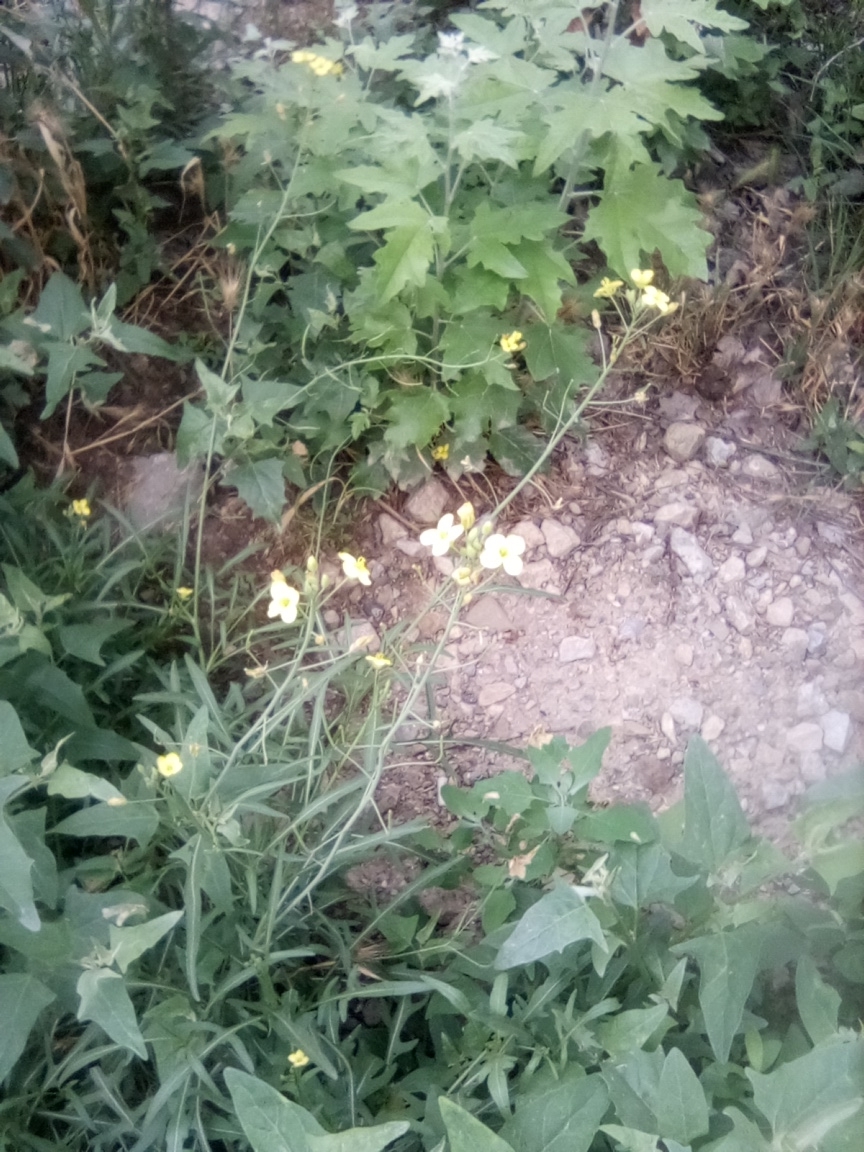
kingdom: Plantae
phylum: Tracheophyta
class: Magnoliopsida
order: Brassicales
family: Brassicaceae
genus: Diplotaxis
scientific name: Diplotaxis tenuifolia
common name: Perennial wall-rocket
